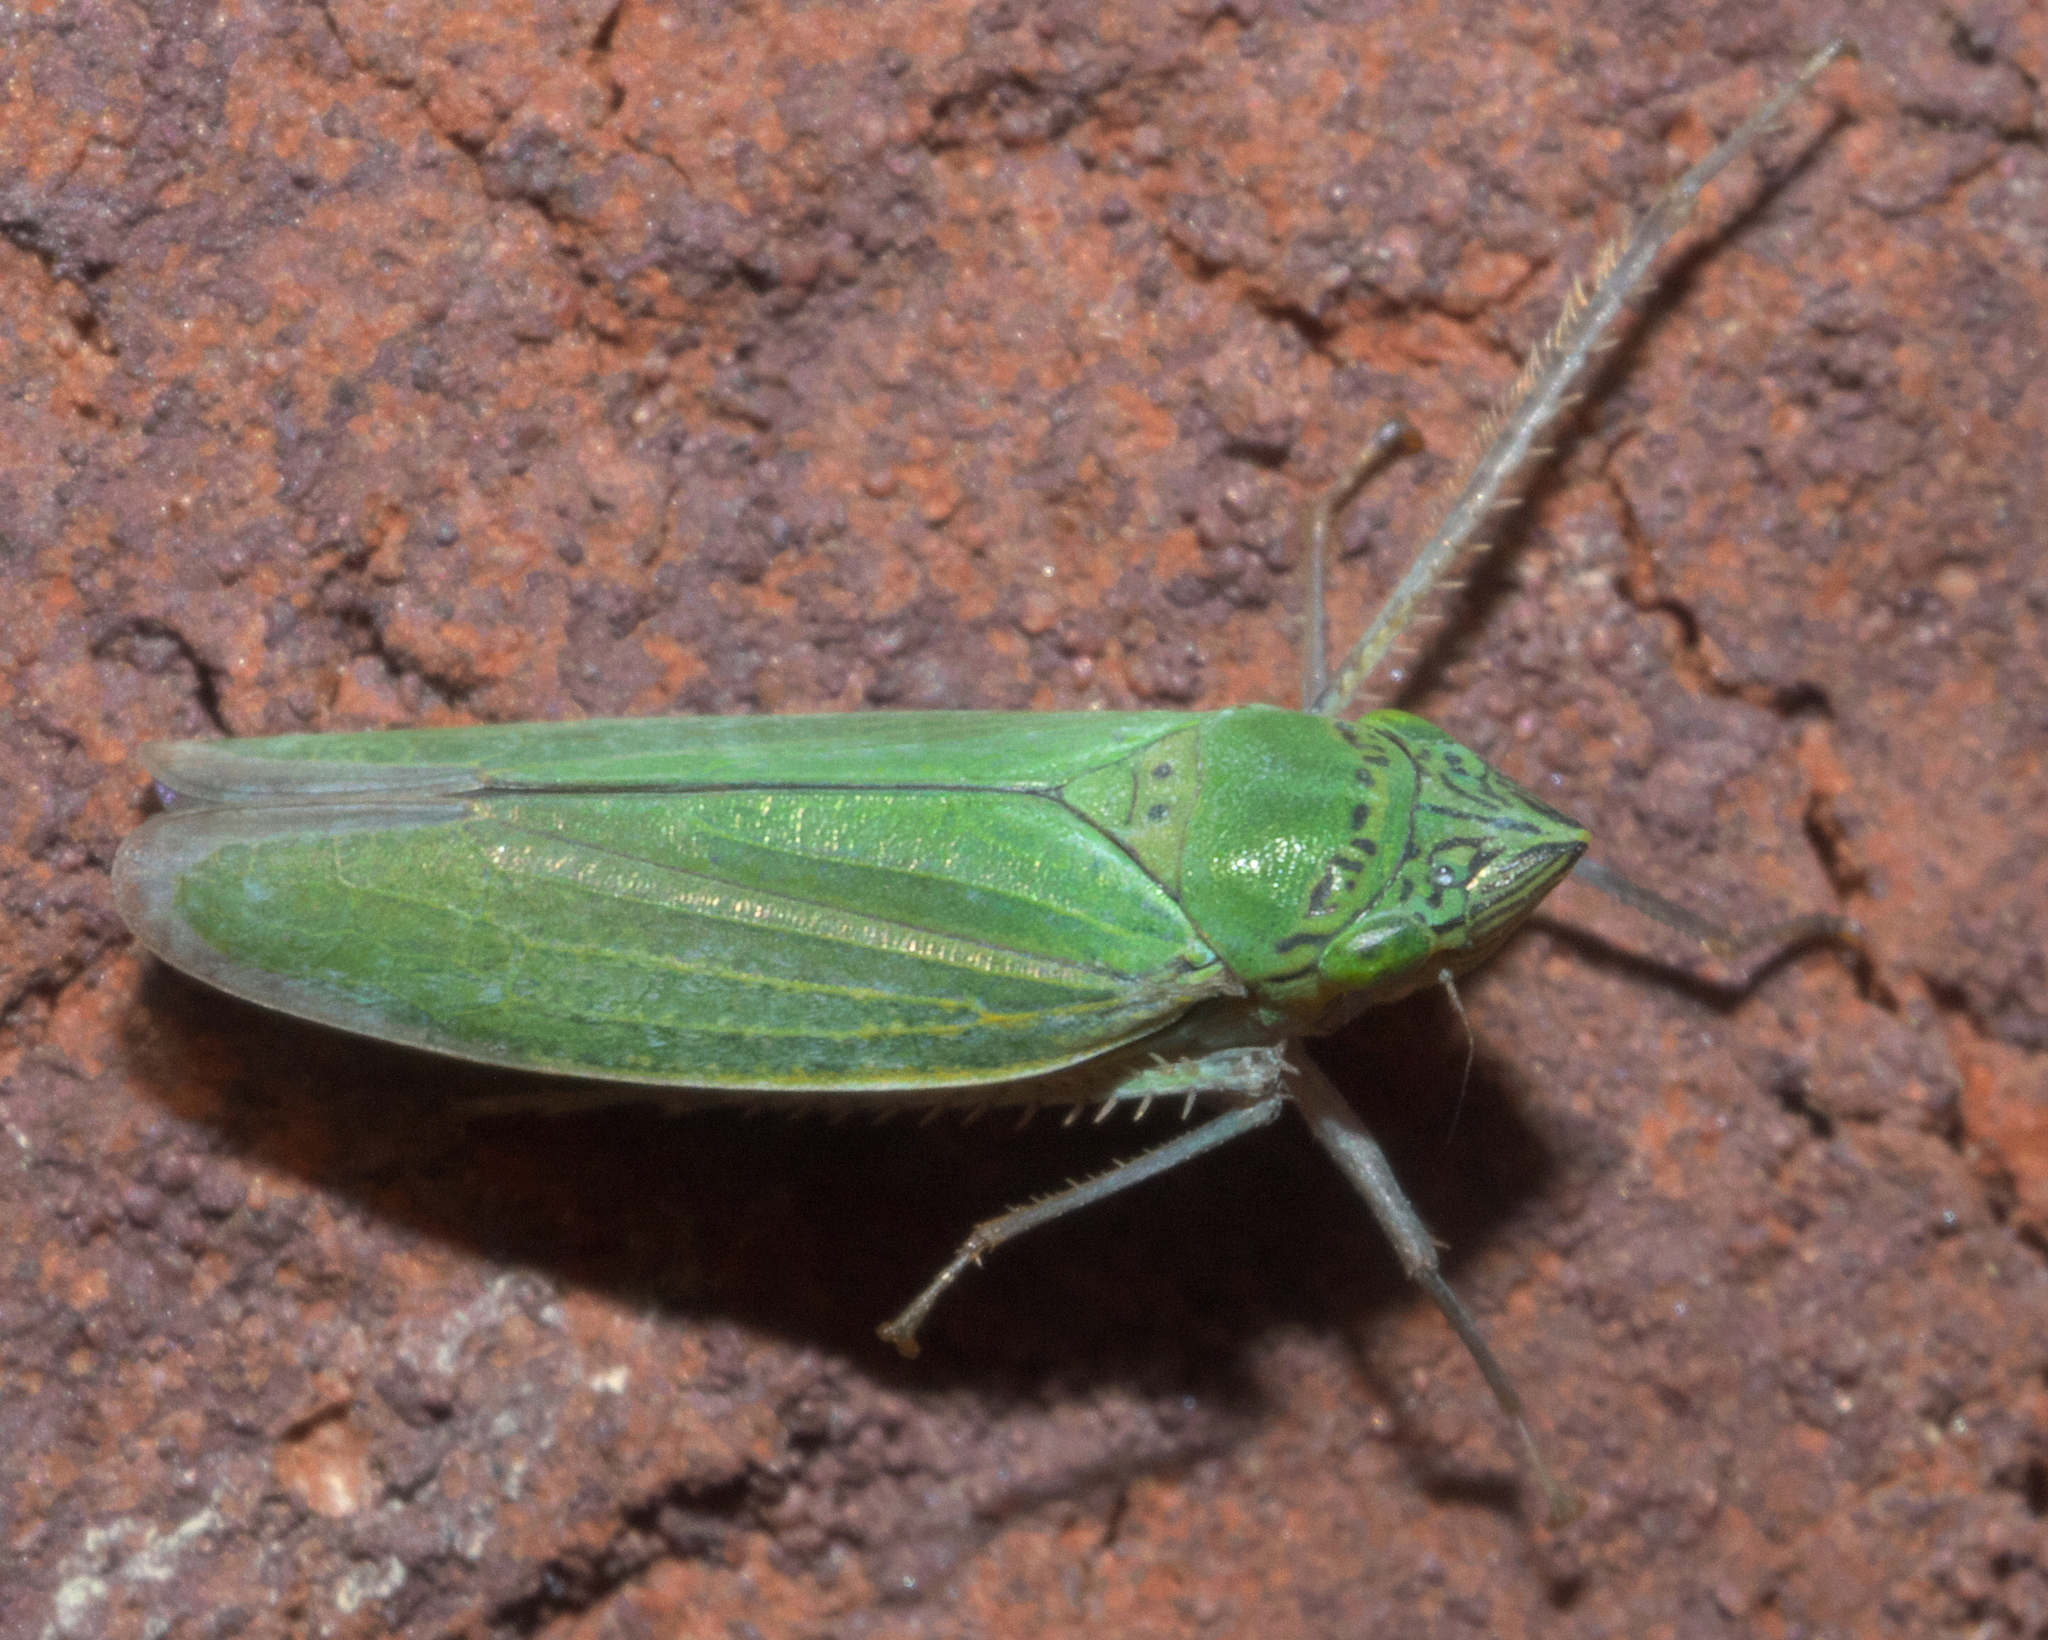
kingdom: Animalia
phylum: Arthropoda
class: Insecta
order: Hemiptera
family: Cicadellidae
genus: Draeculacephala
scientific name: Draeculacephala inscripta
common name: Leafhopper
